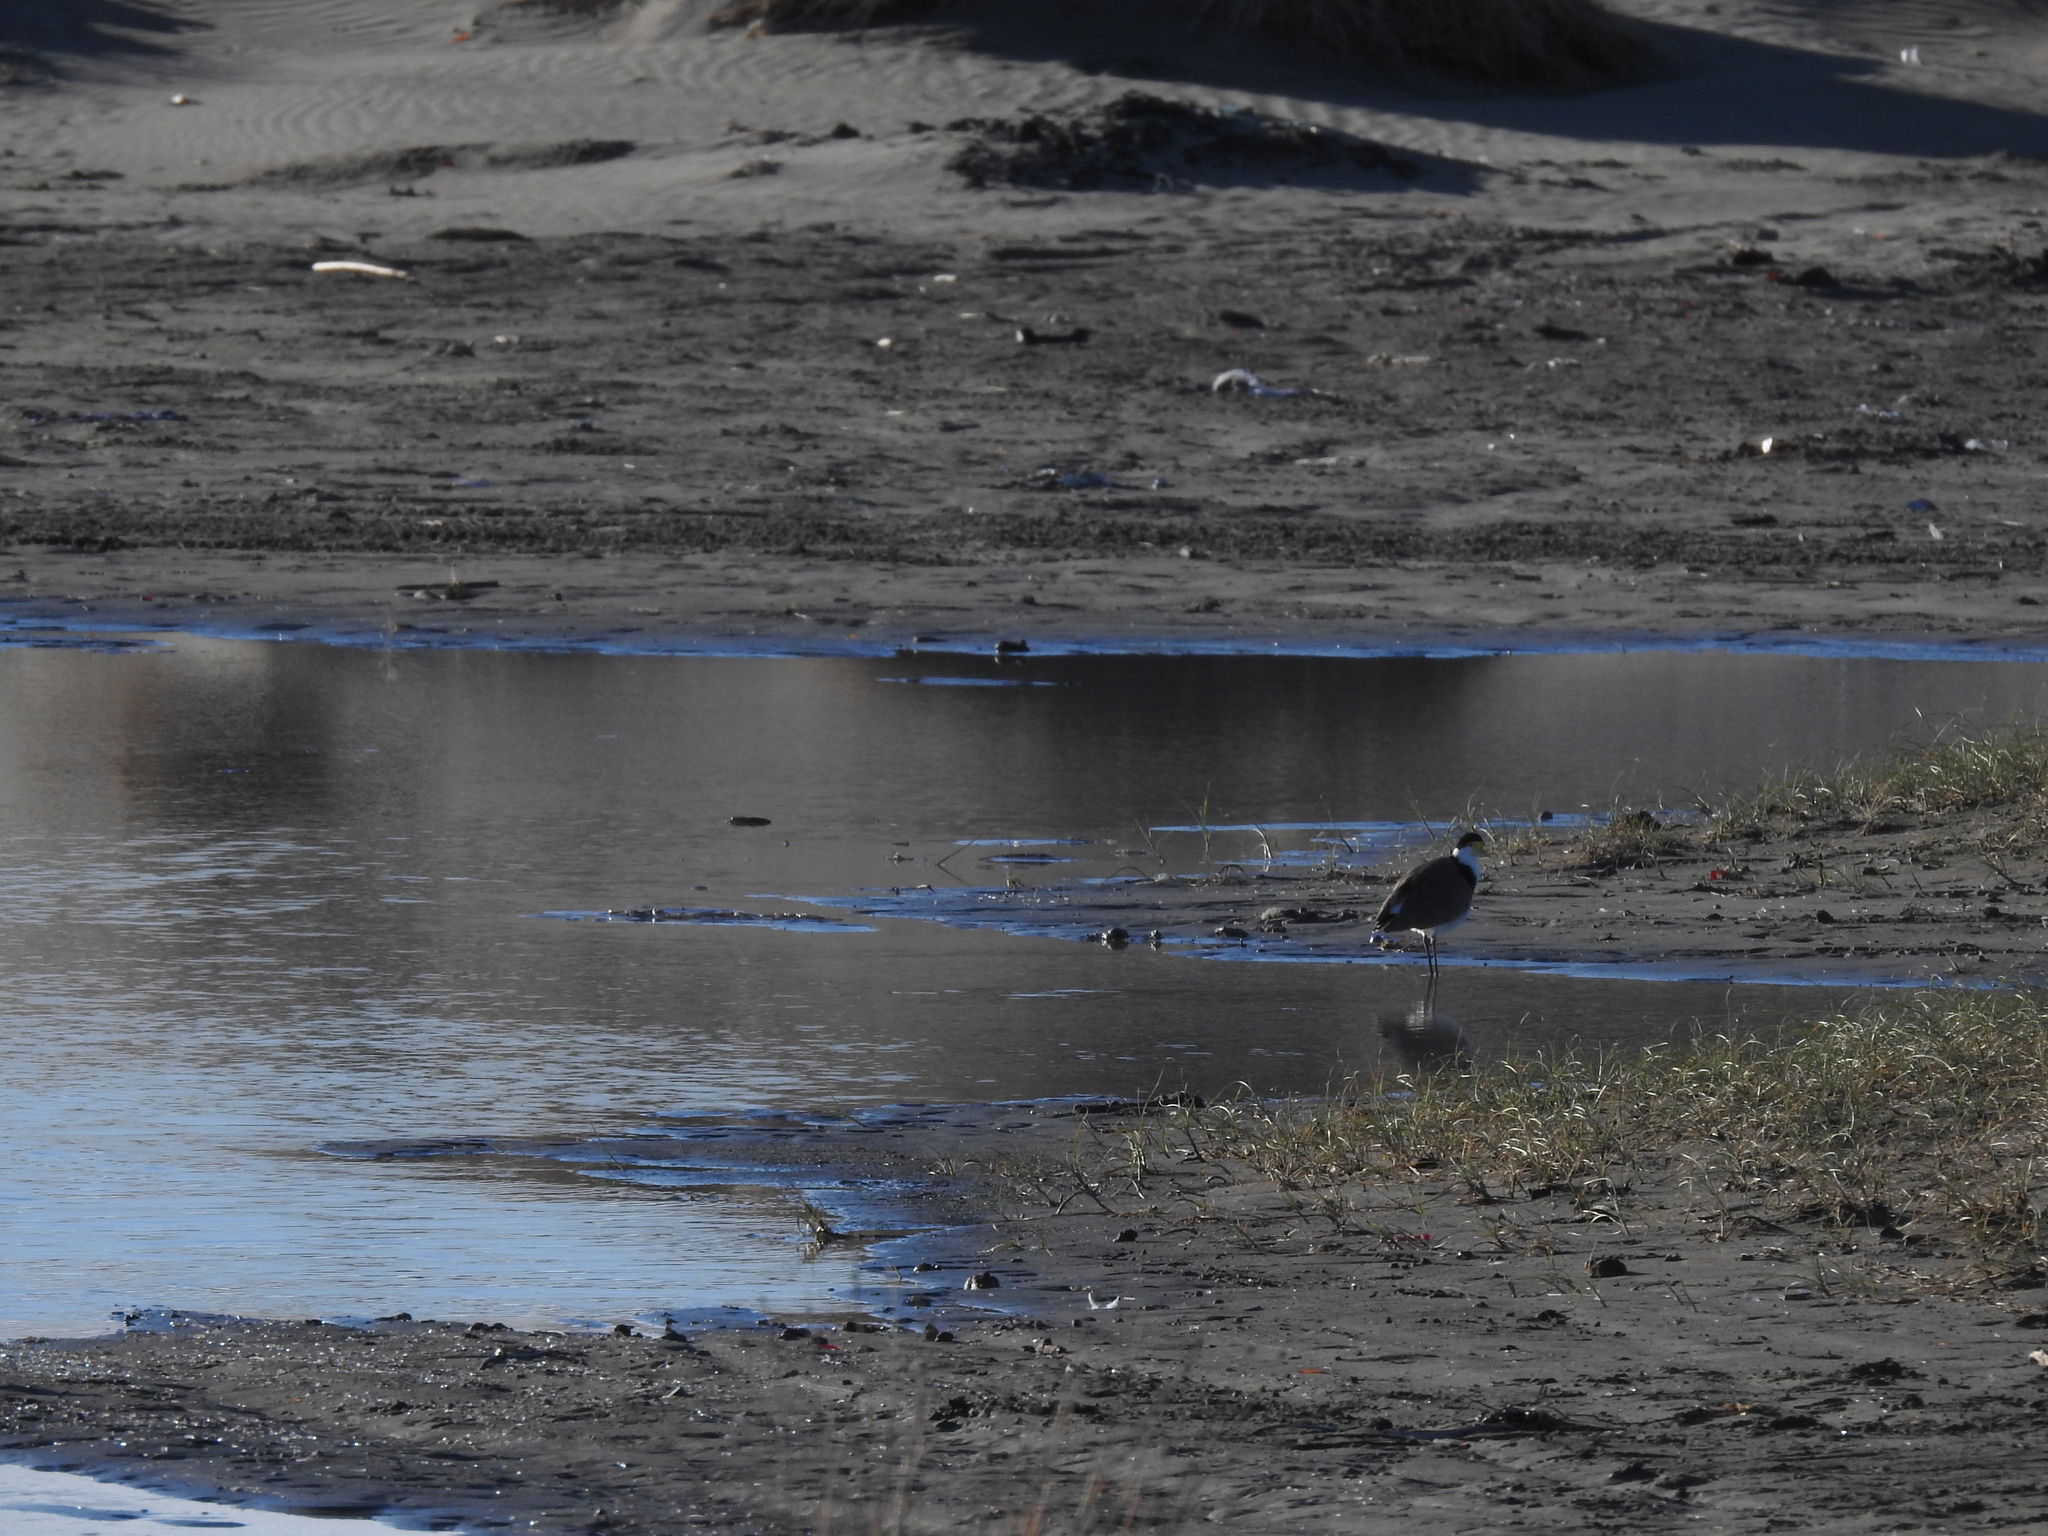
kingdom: Animalia
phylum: Chordata
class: Aves
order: Charadriiformes
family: Charadriidae
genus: Vanellus
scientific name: Vanellus miles
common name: Masked lapwing
